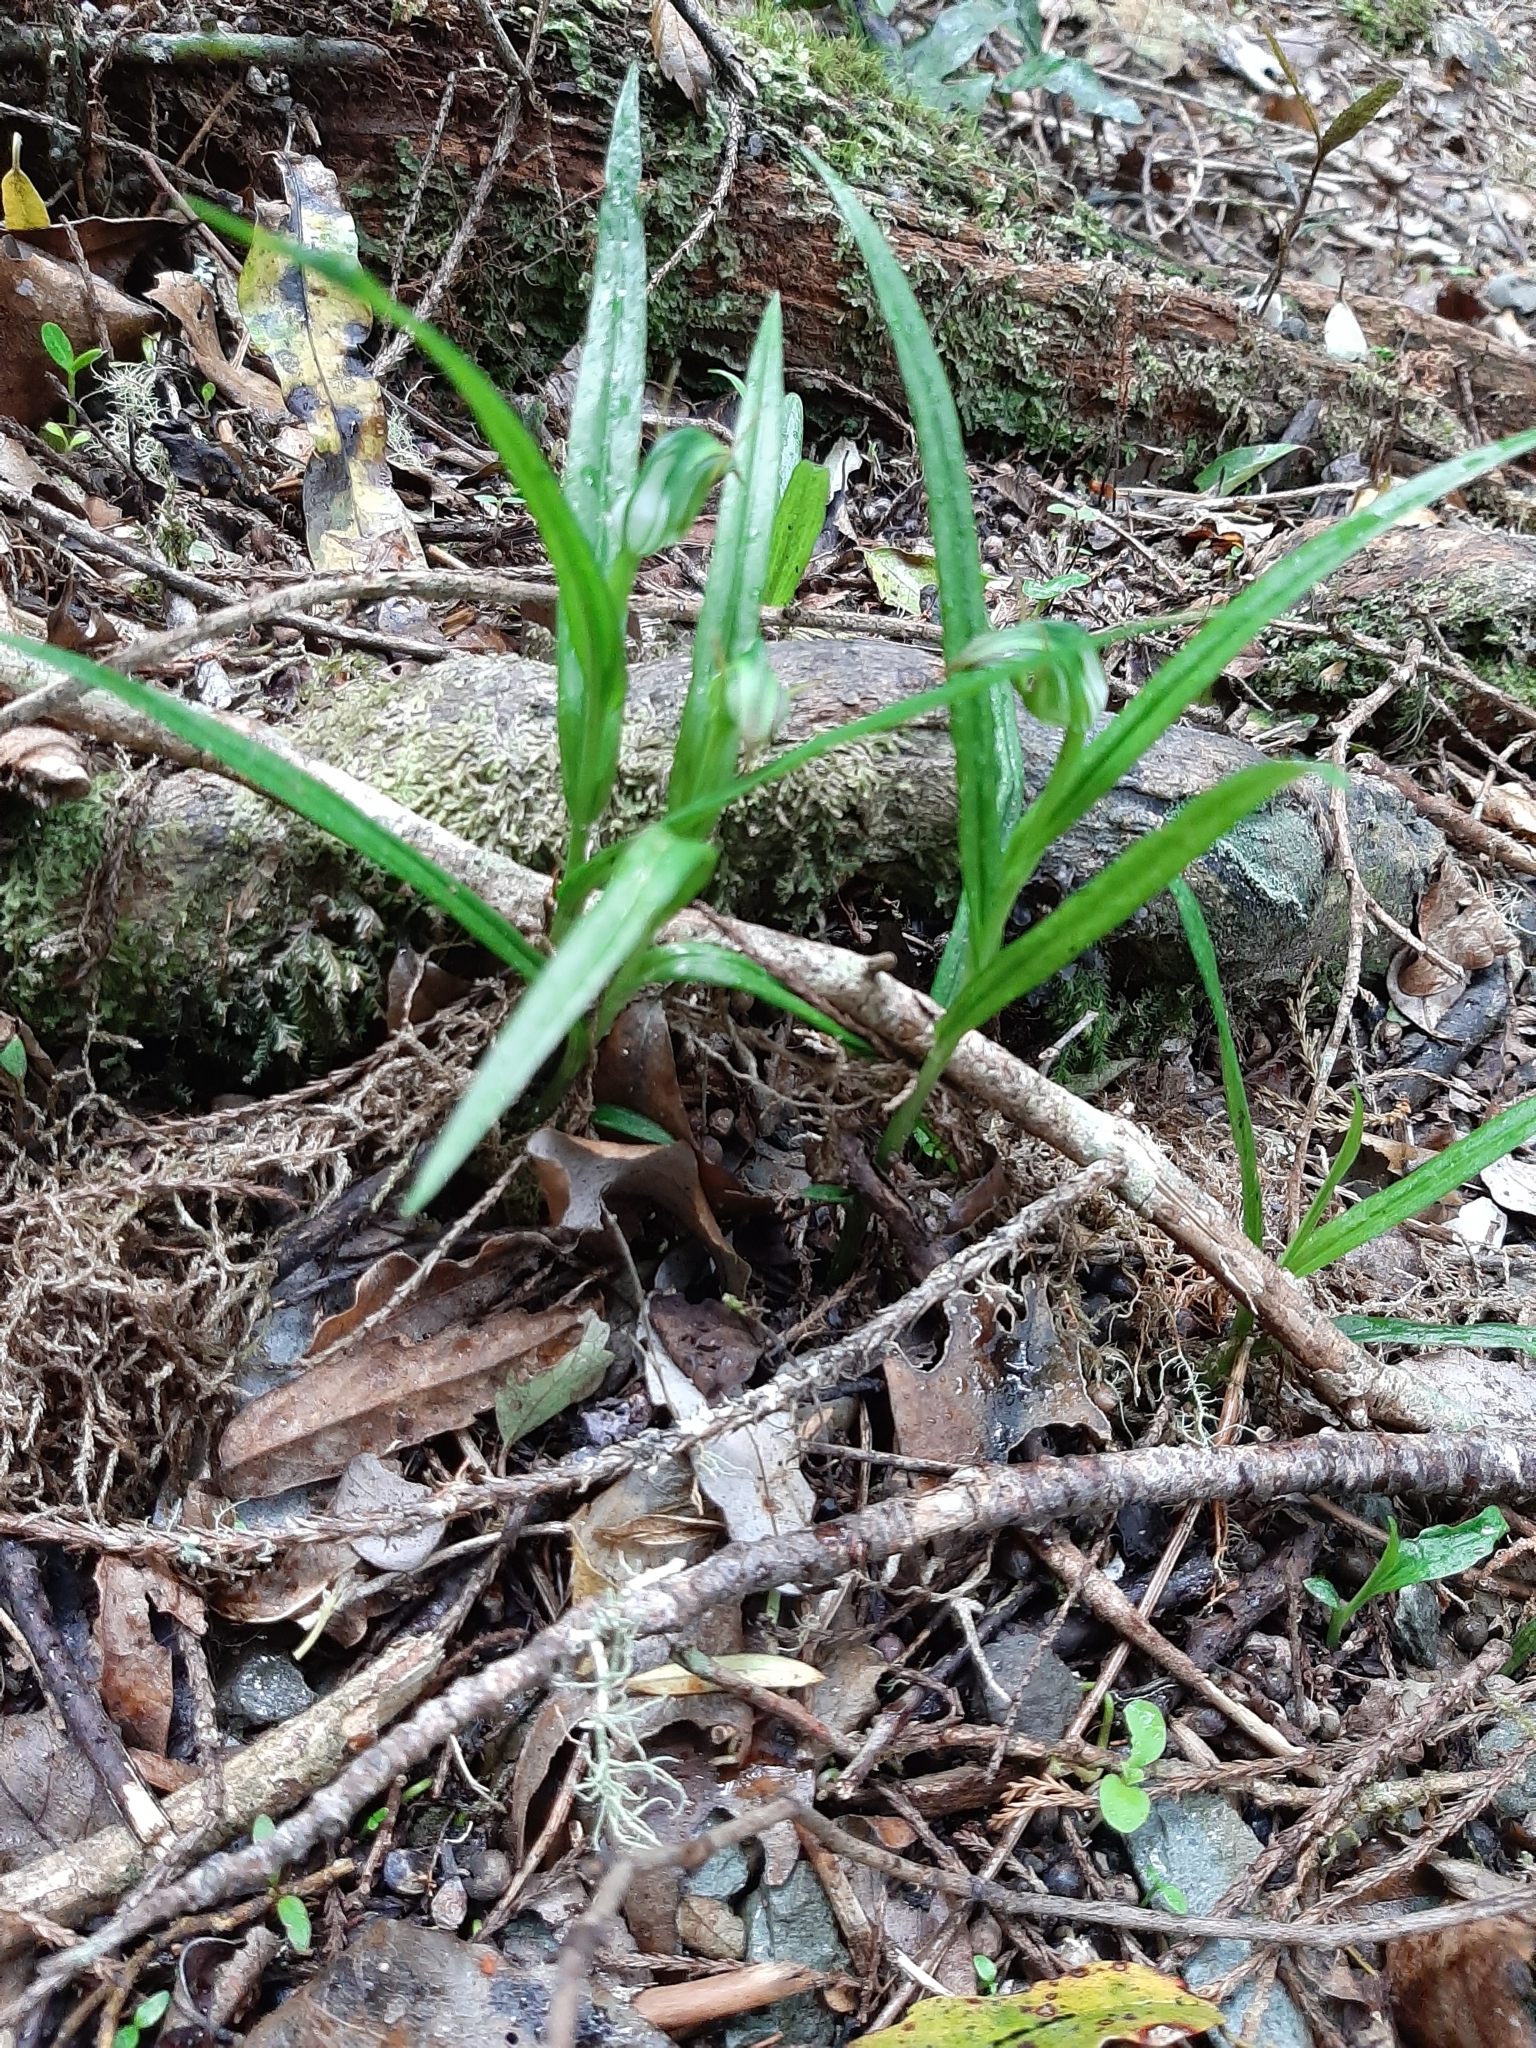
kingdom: Plantae
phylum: Tracheophyta
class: Liliopsida
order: Asparagales
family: Orchidaceae
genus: Pterostylis
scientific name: Pterostylis graminea
